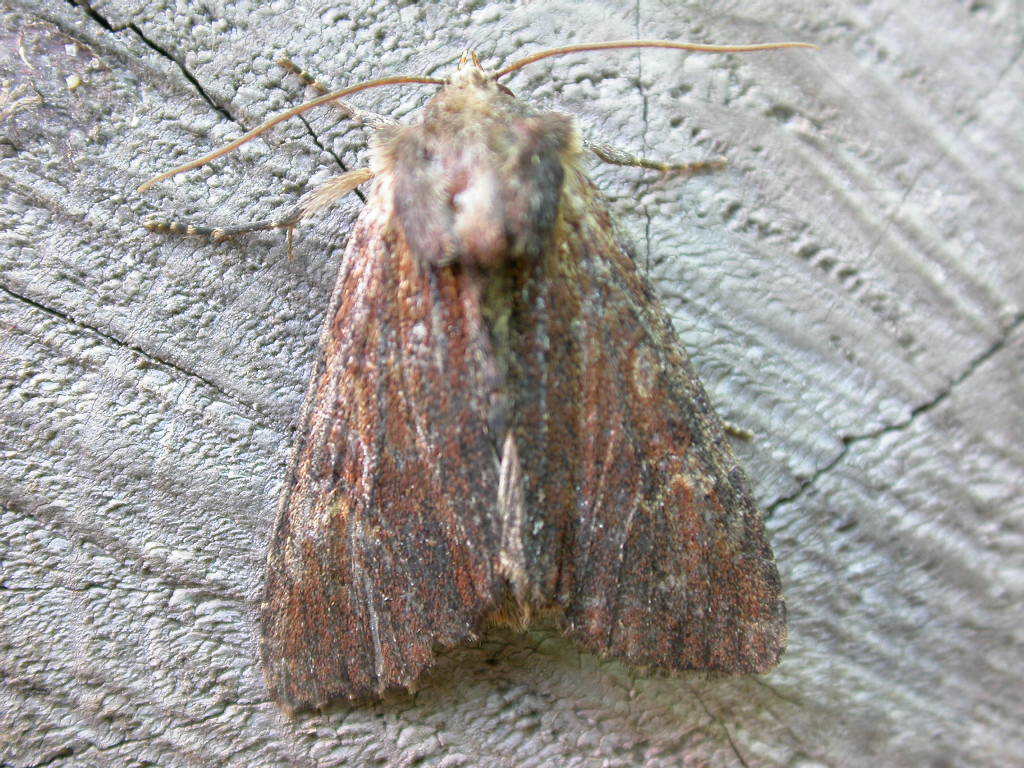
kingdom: Animalia
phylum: Arthropoda
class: Insecta
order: Lepidoptera
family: Noctuidae
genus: Apamea
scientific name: Apamea crenata
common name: Clouded-bordered brindle
